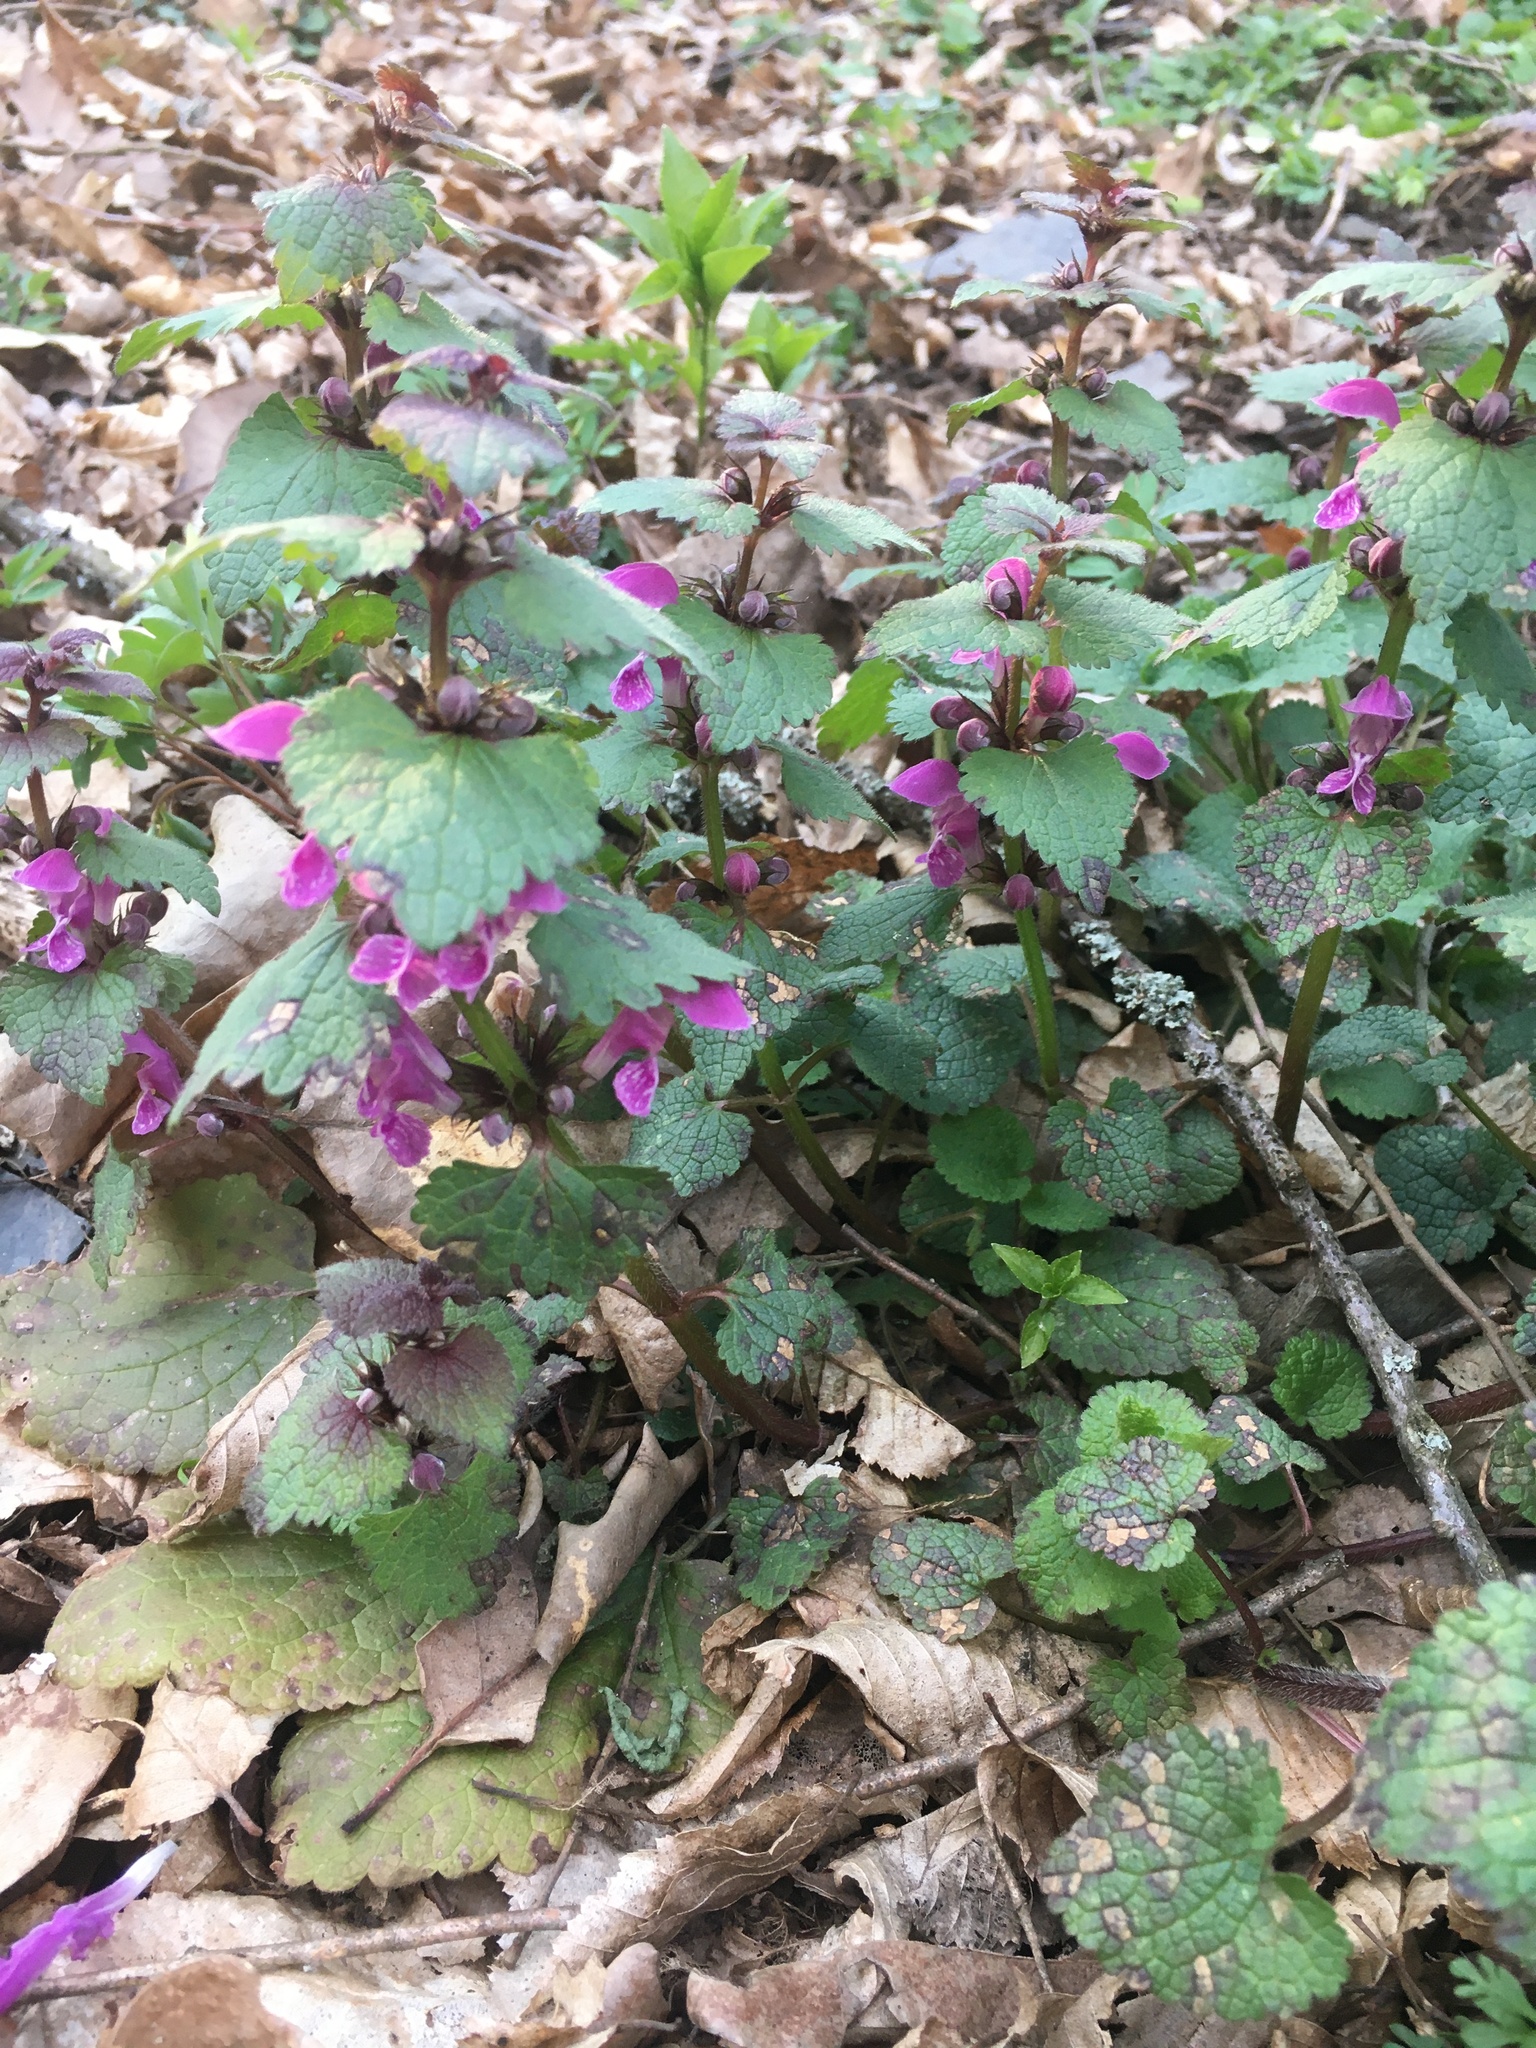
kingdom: Plantae
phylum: Tracheophyta
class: Magnoliopsida
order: Lamiales
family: Lamiaceae
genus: Lamium
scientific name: Lamium maculatum
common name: Spotted dead-nettle
